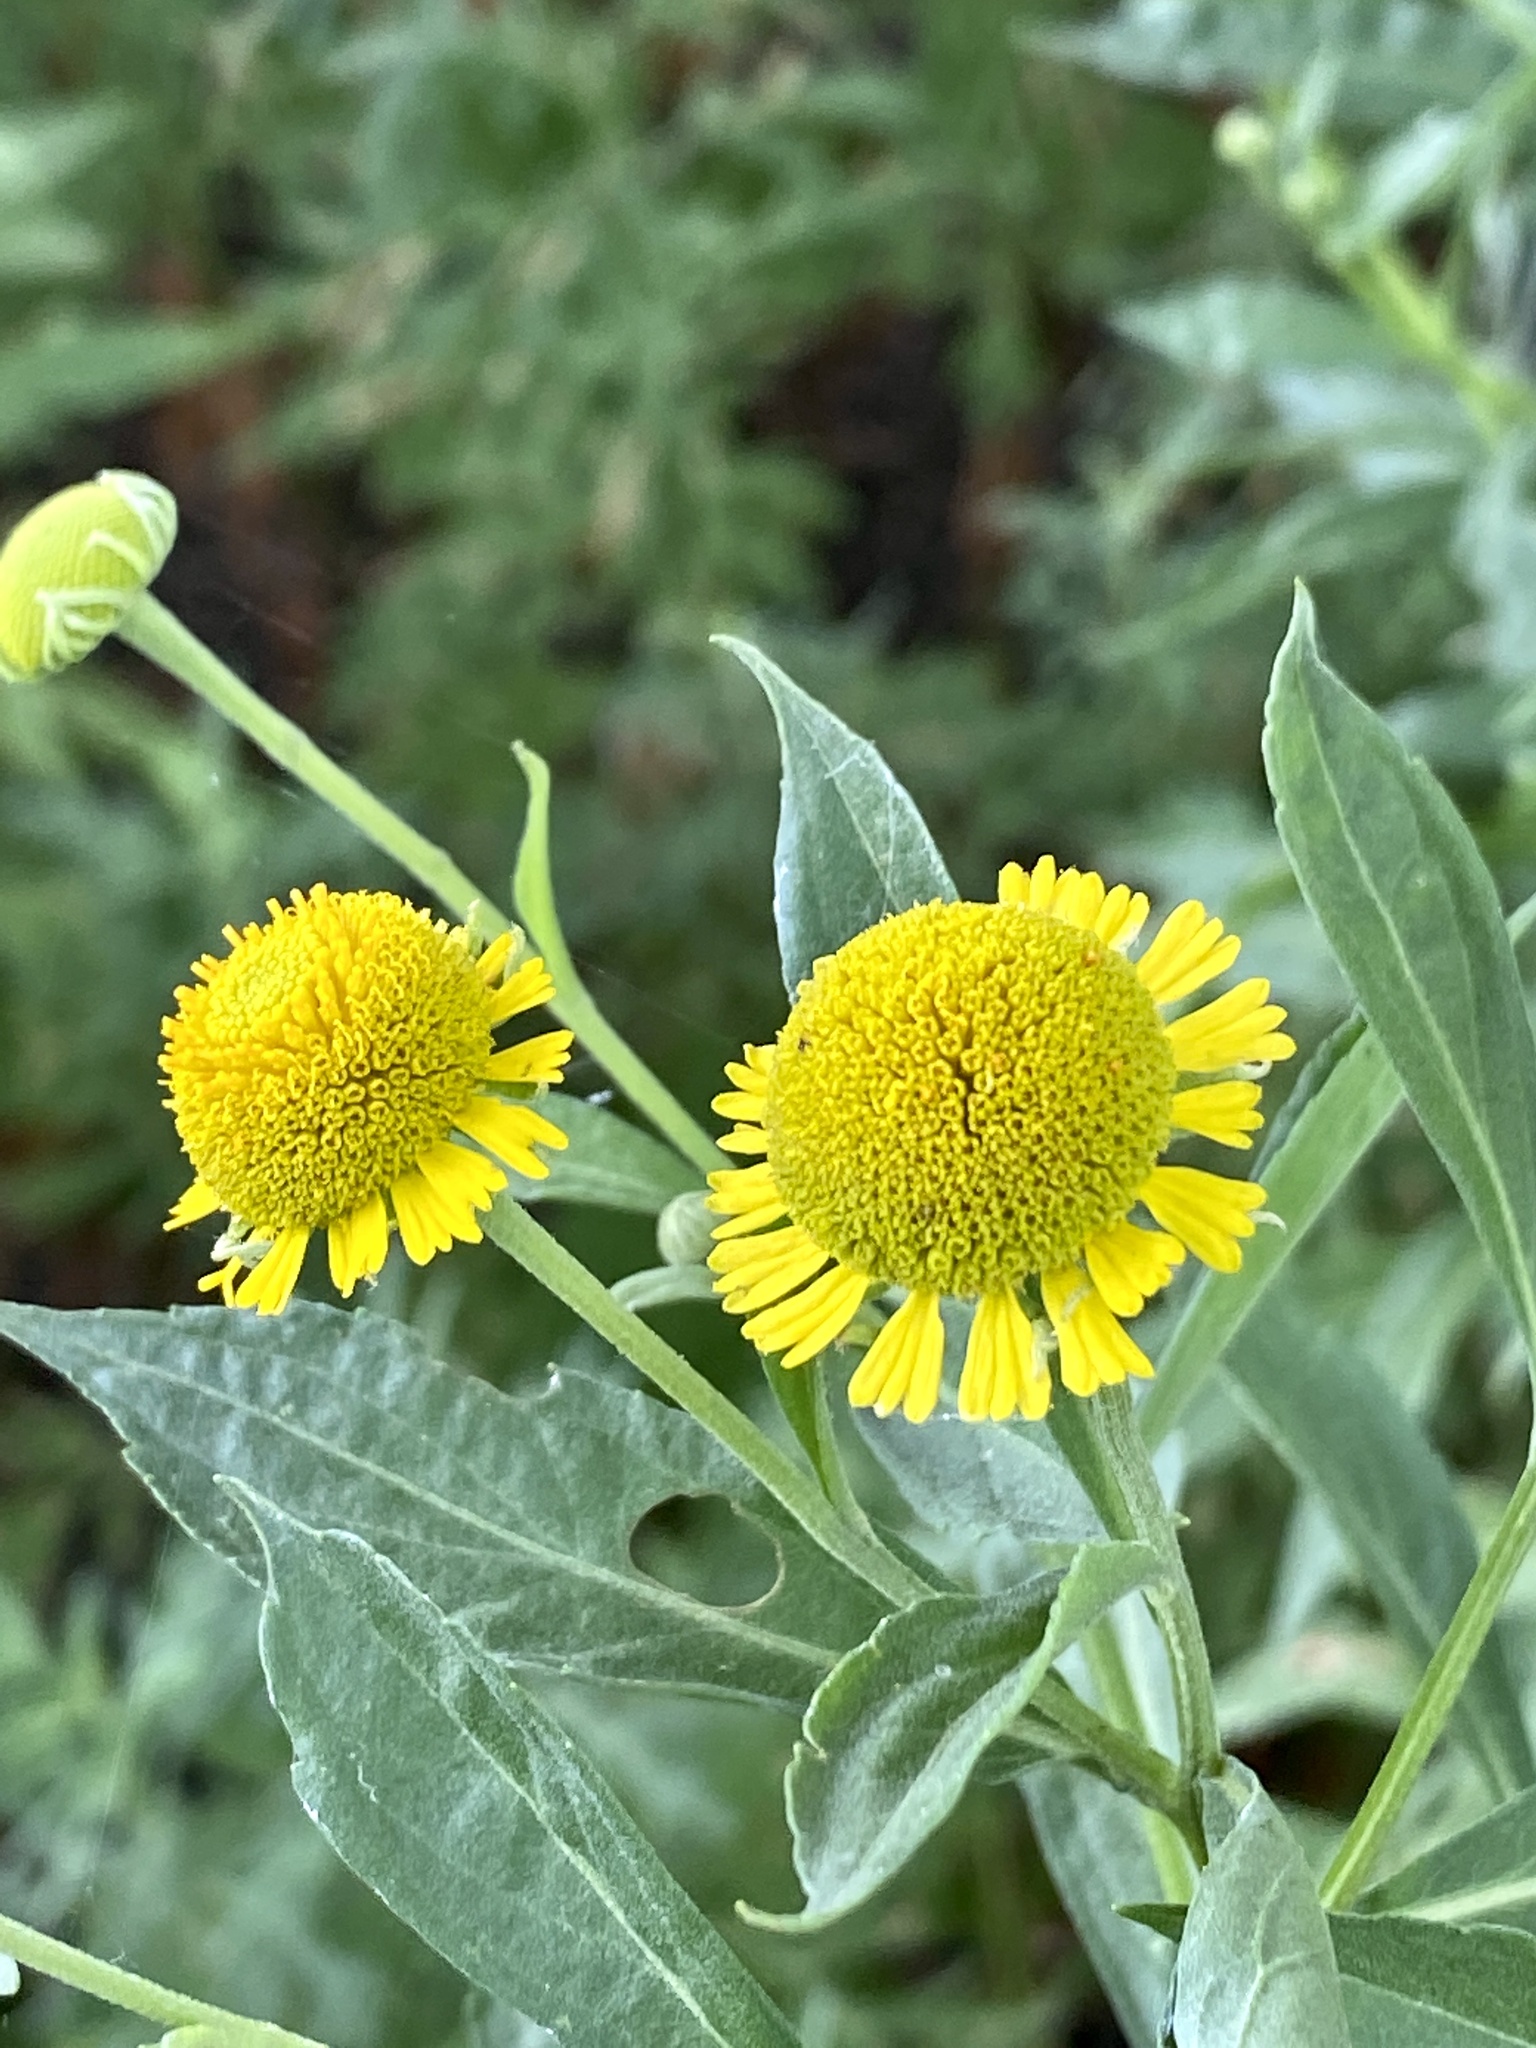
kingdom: Plantae
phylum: Tracheophyta
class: Magnoliopsida
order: Asterales
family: Asteraceae
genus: Helenium
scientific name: Helenium autumnale
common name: Sneezeweed
